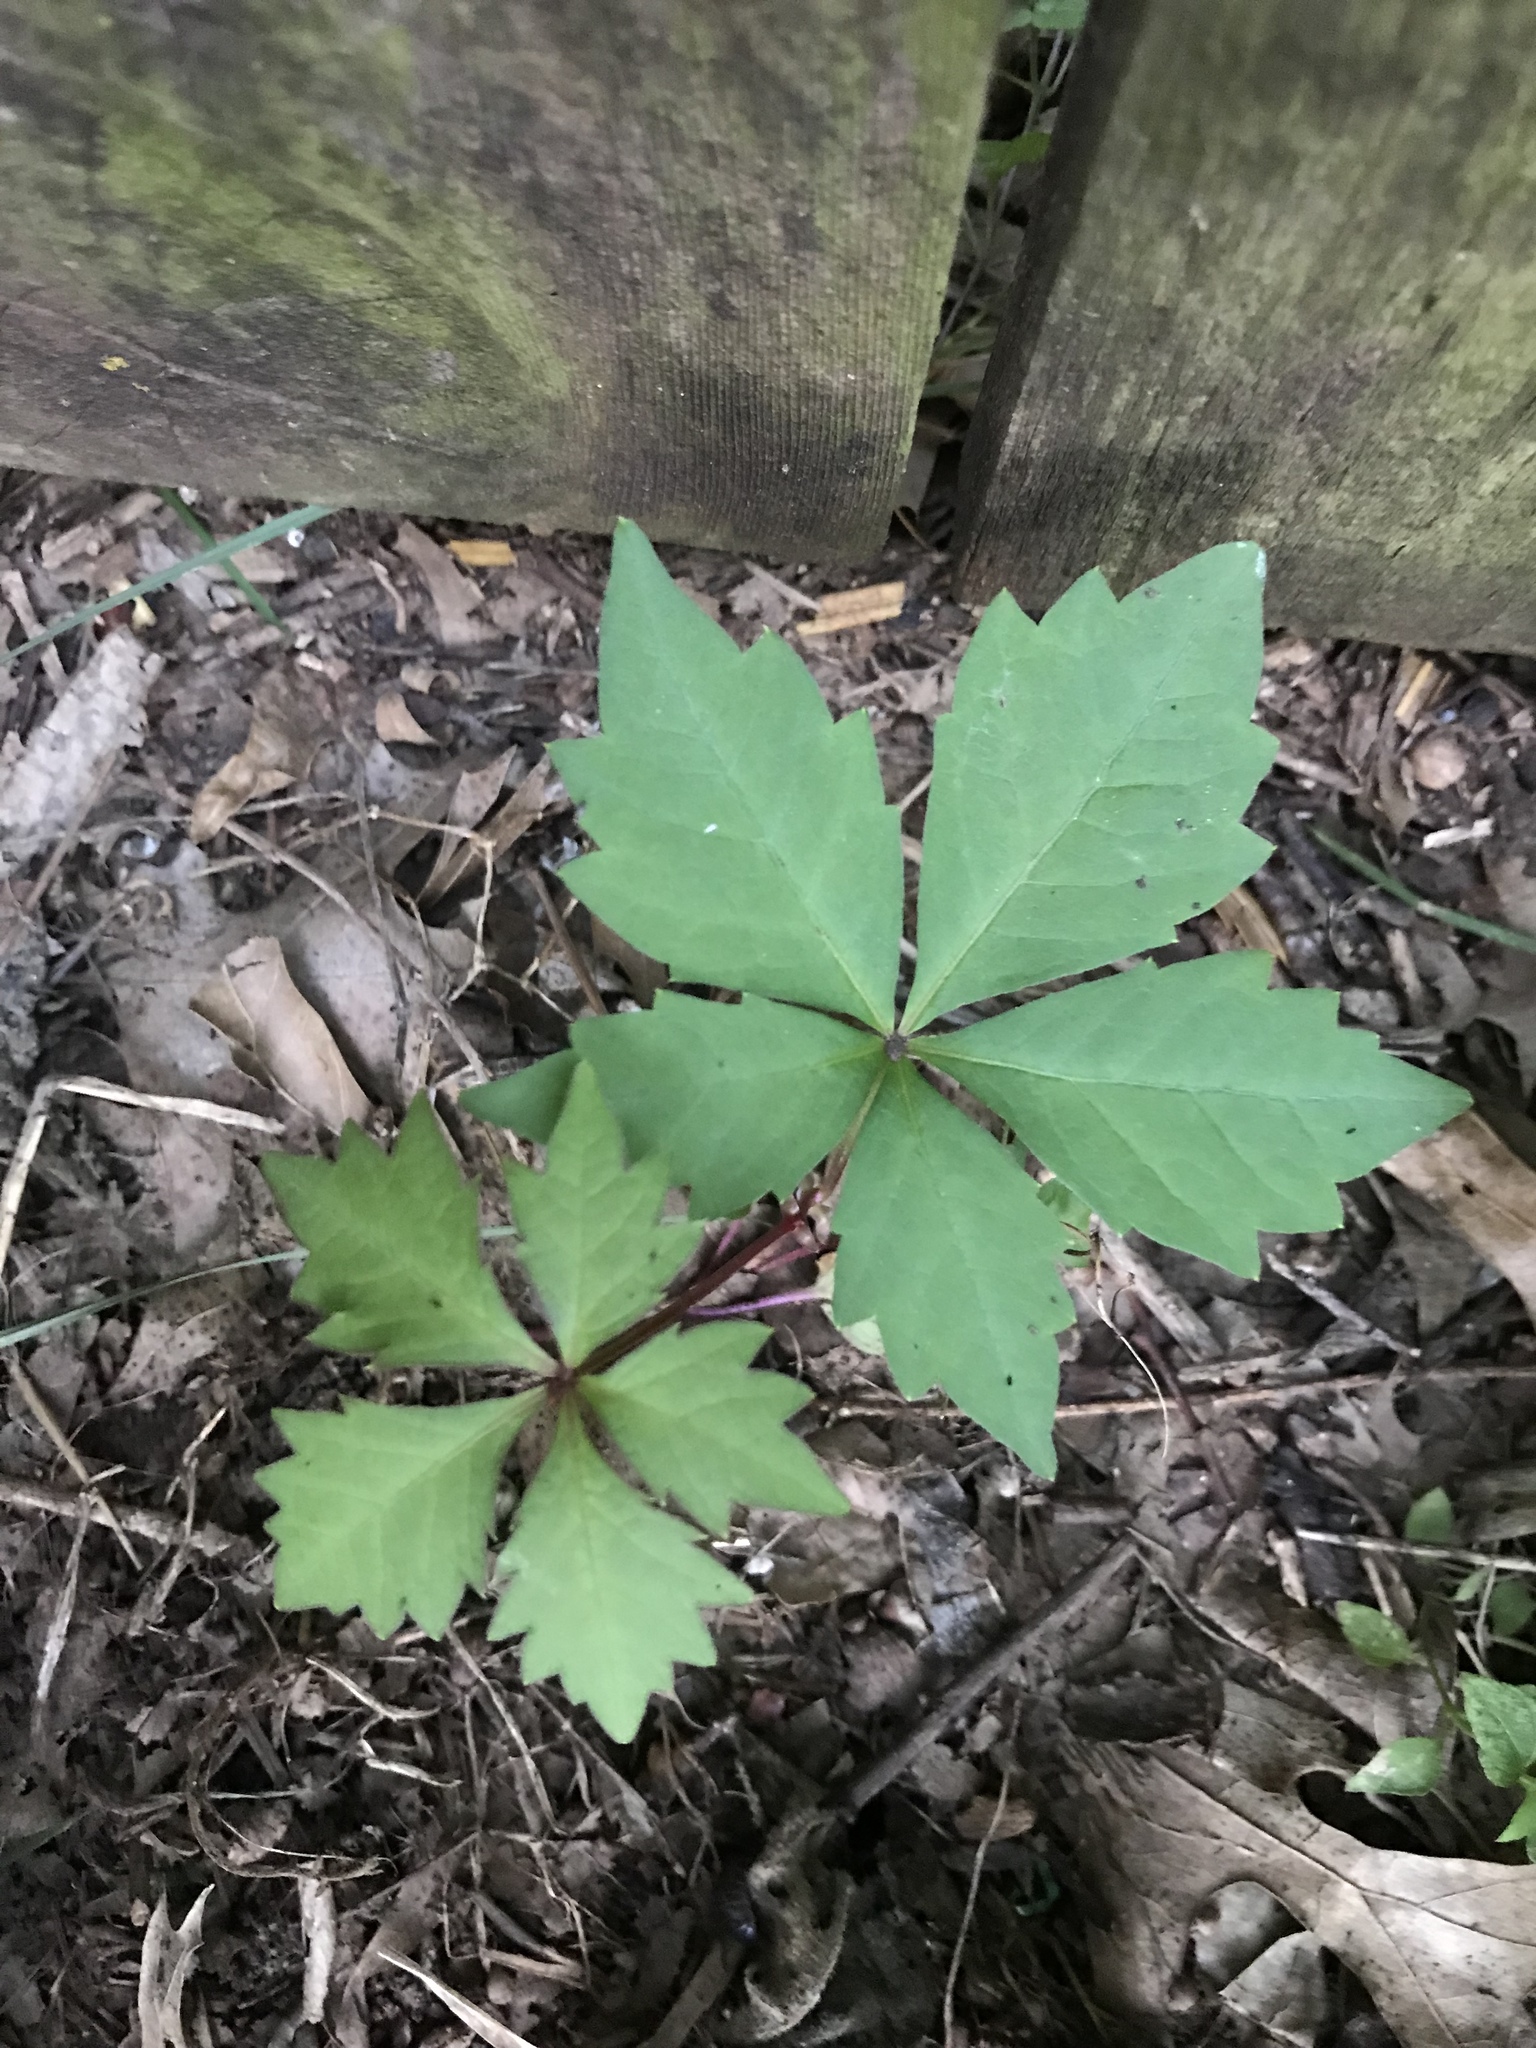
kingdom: Plantae
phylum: Tracheophyta
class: Magnoliopsida
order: Vitales
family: Vitaceae
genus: Parthenocissus
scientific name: Parthenocissus quinquefolia
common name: Virginia-creeper
